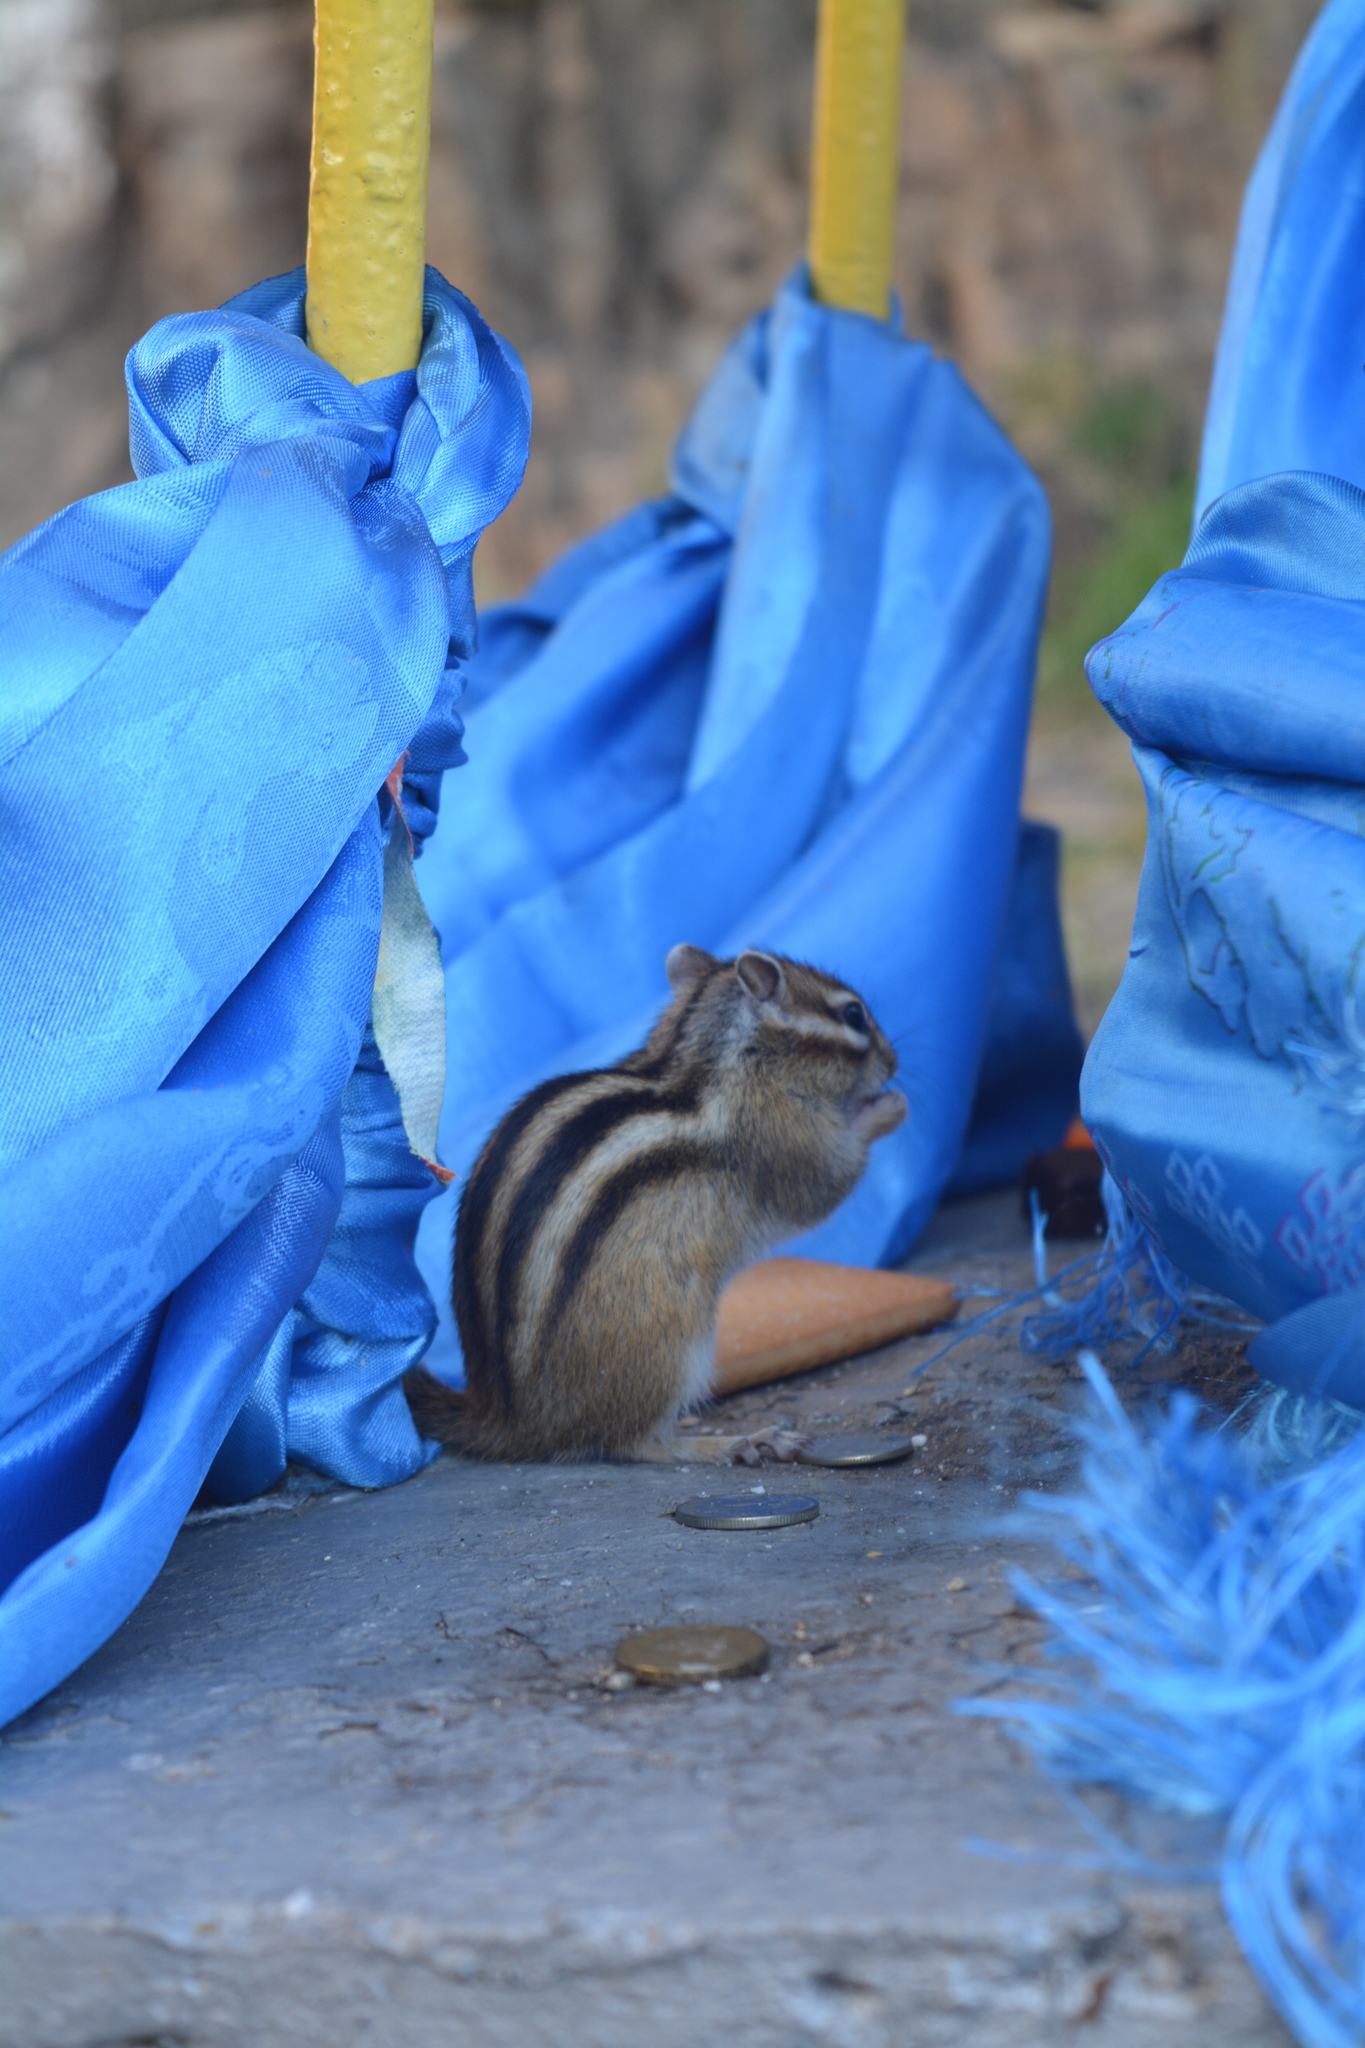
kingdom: Animalia
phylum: Chordata
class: Mammalia
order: Rodentia
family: Sciuridae
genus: Tamias
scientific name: Tamias sibiricus
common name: Siberian chipmunk
